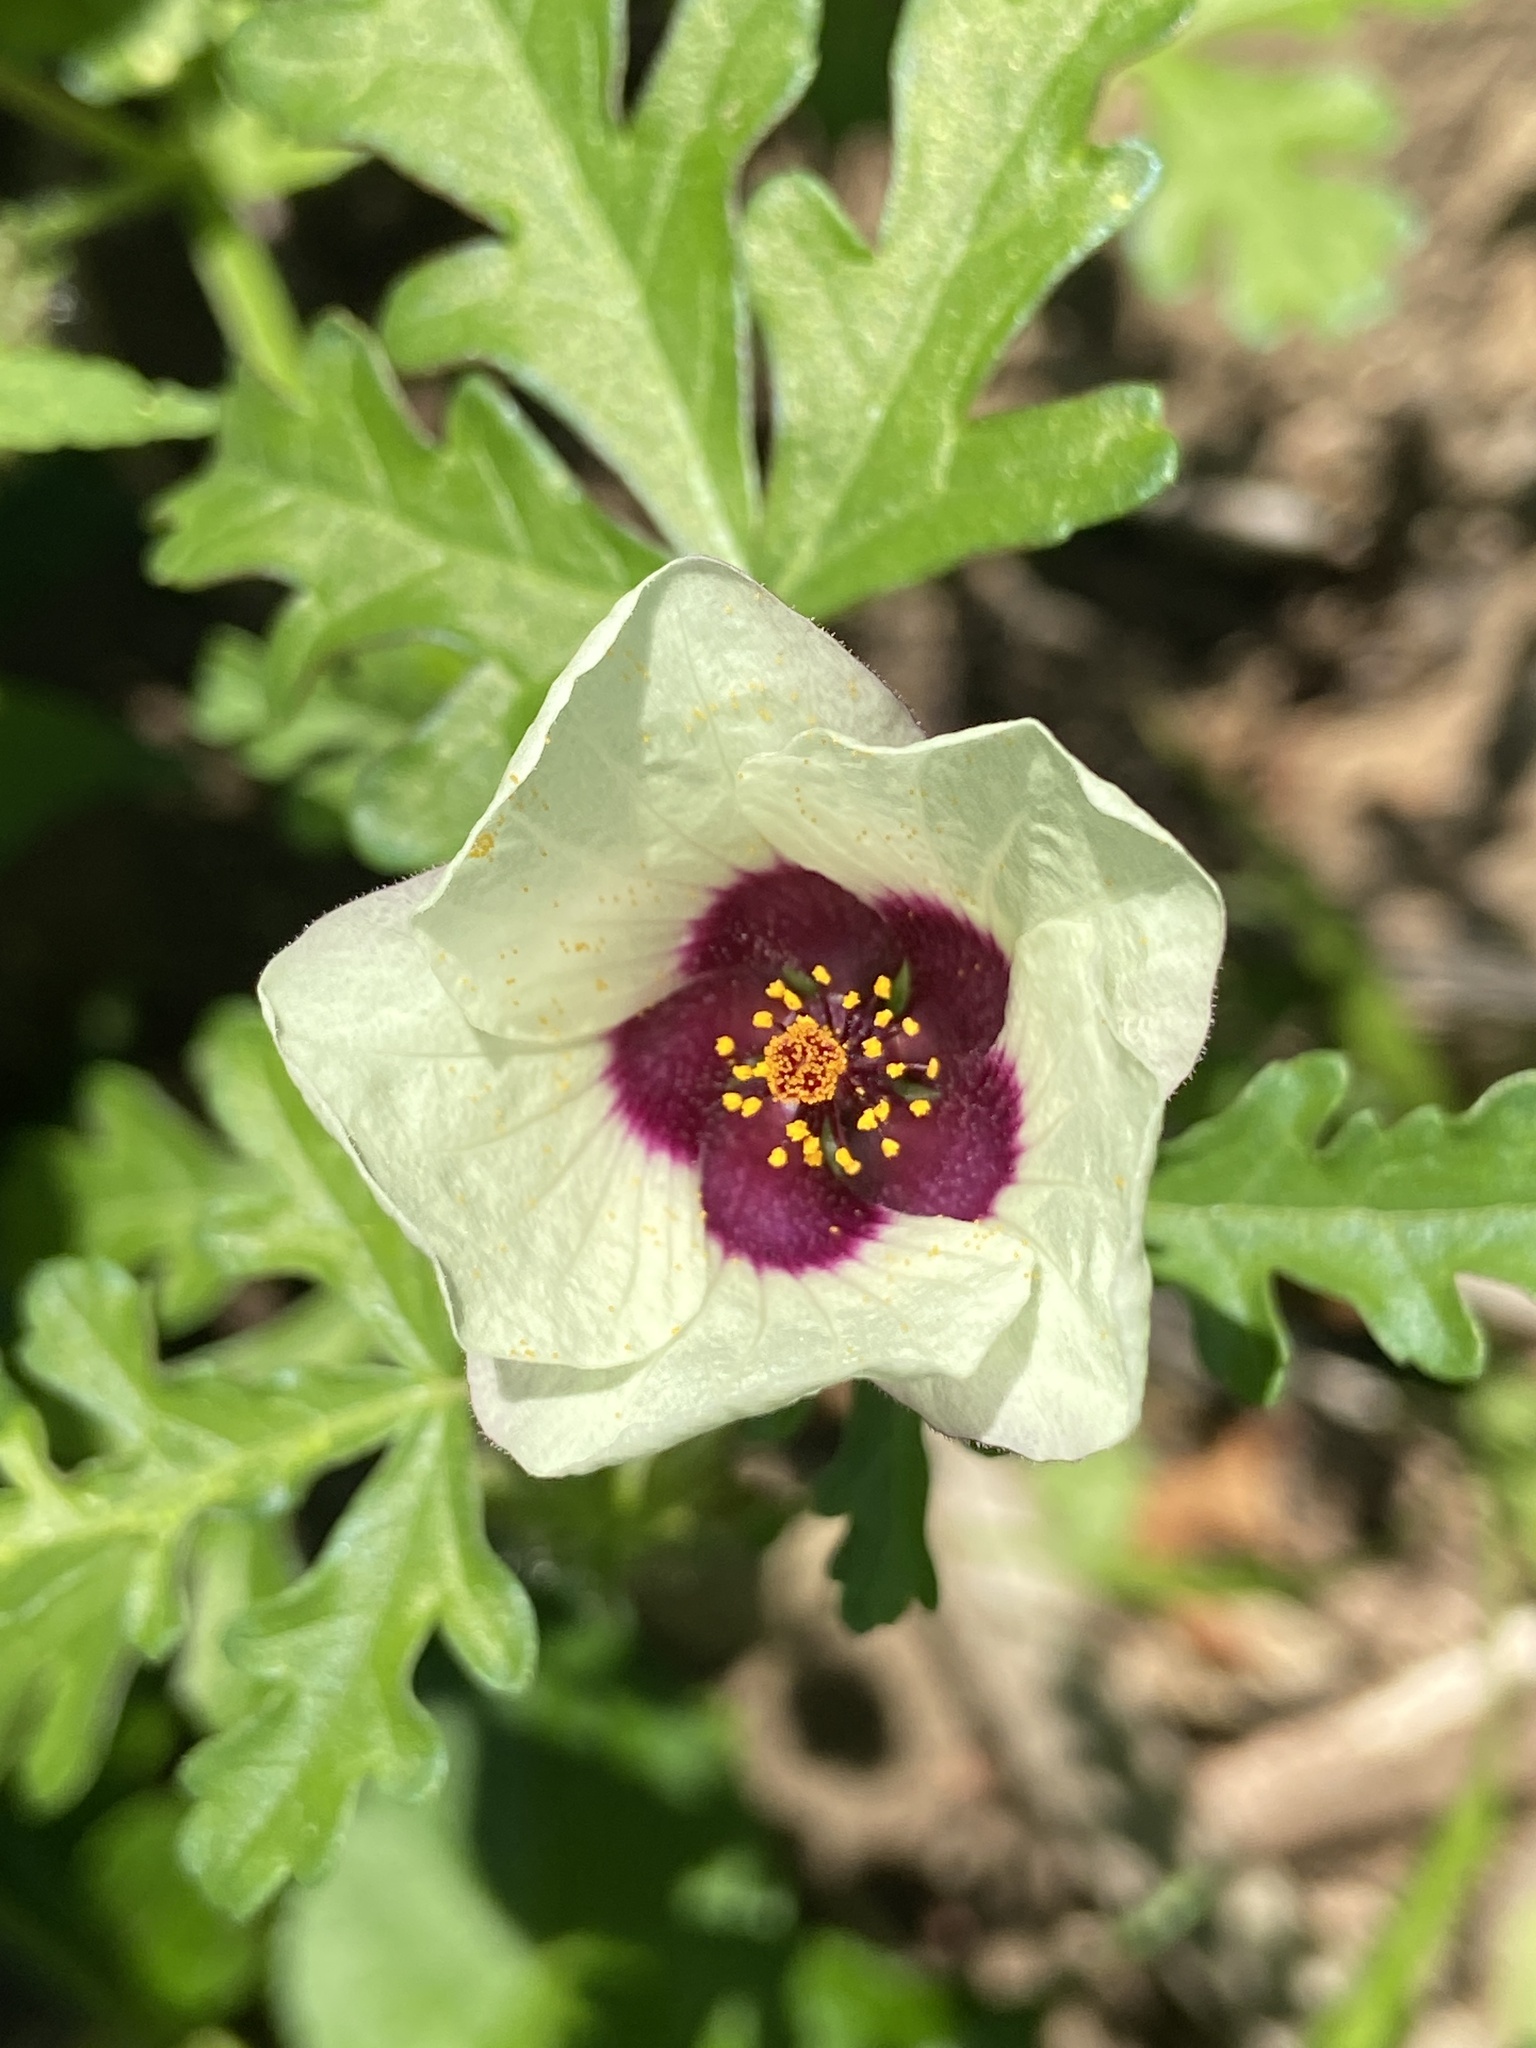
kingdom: Plantae
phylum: Tracheophyta
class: Magnoliopsida
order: Malvales
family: Malvaceae
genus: Hibiscus
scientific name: Hibiscus trionum
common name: Bladder ketmia
